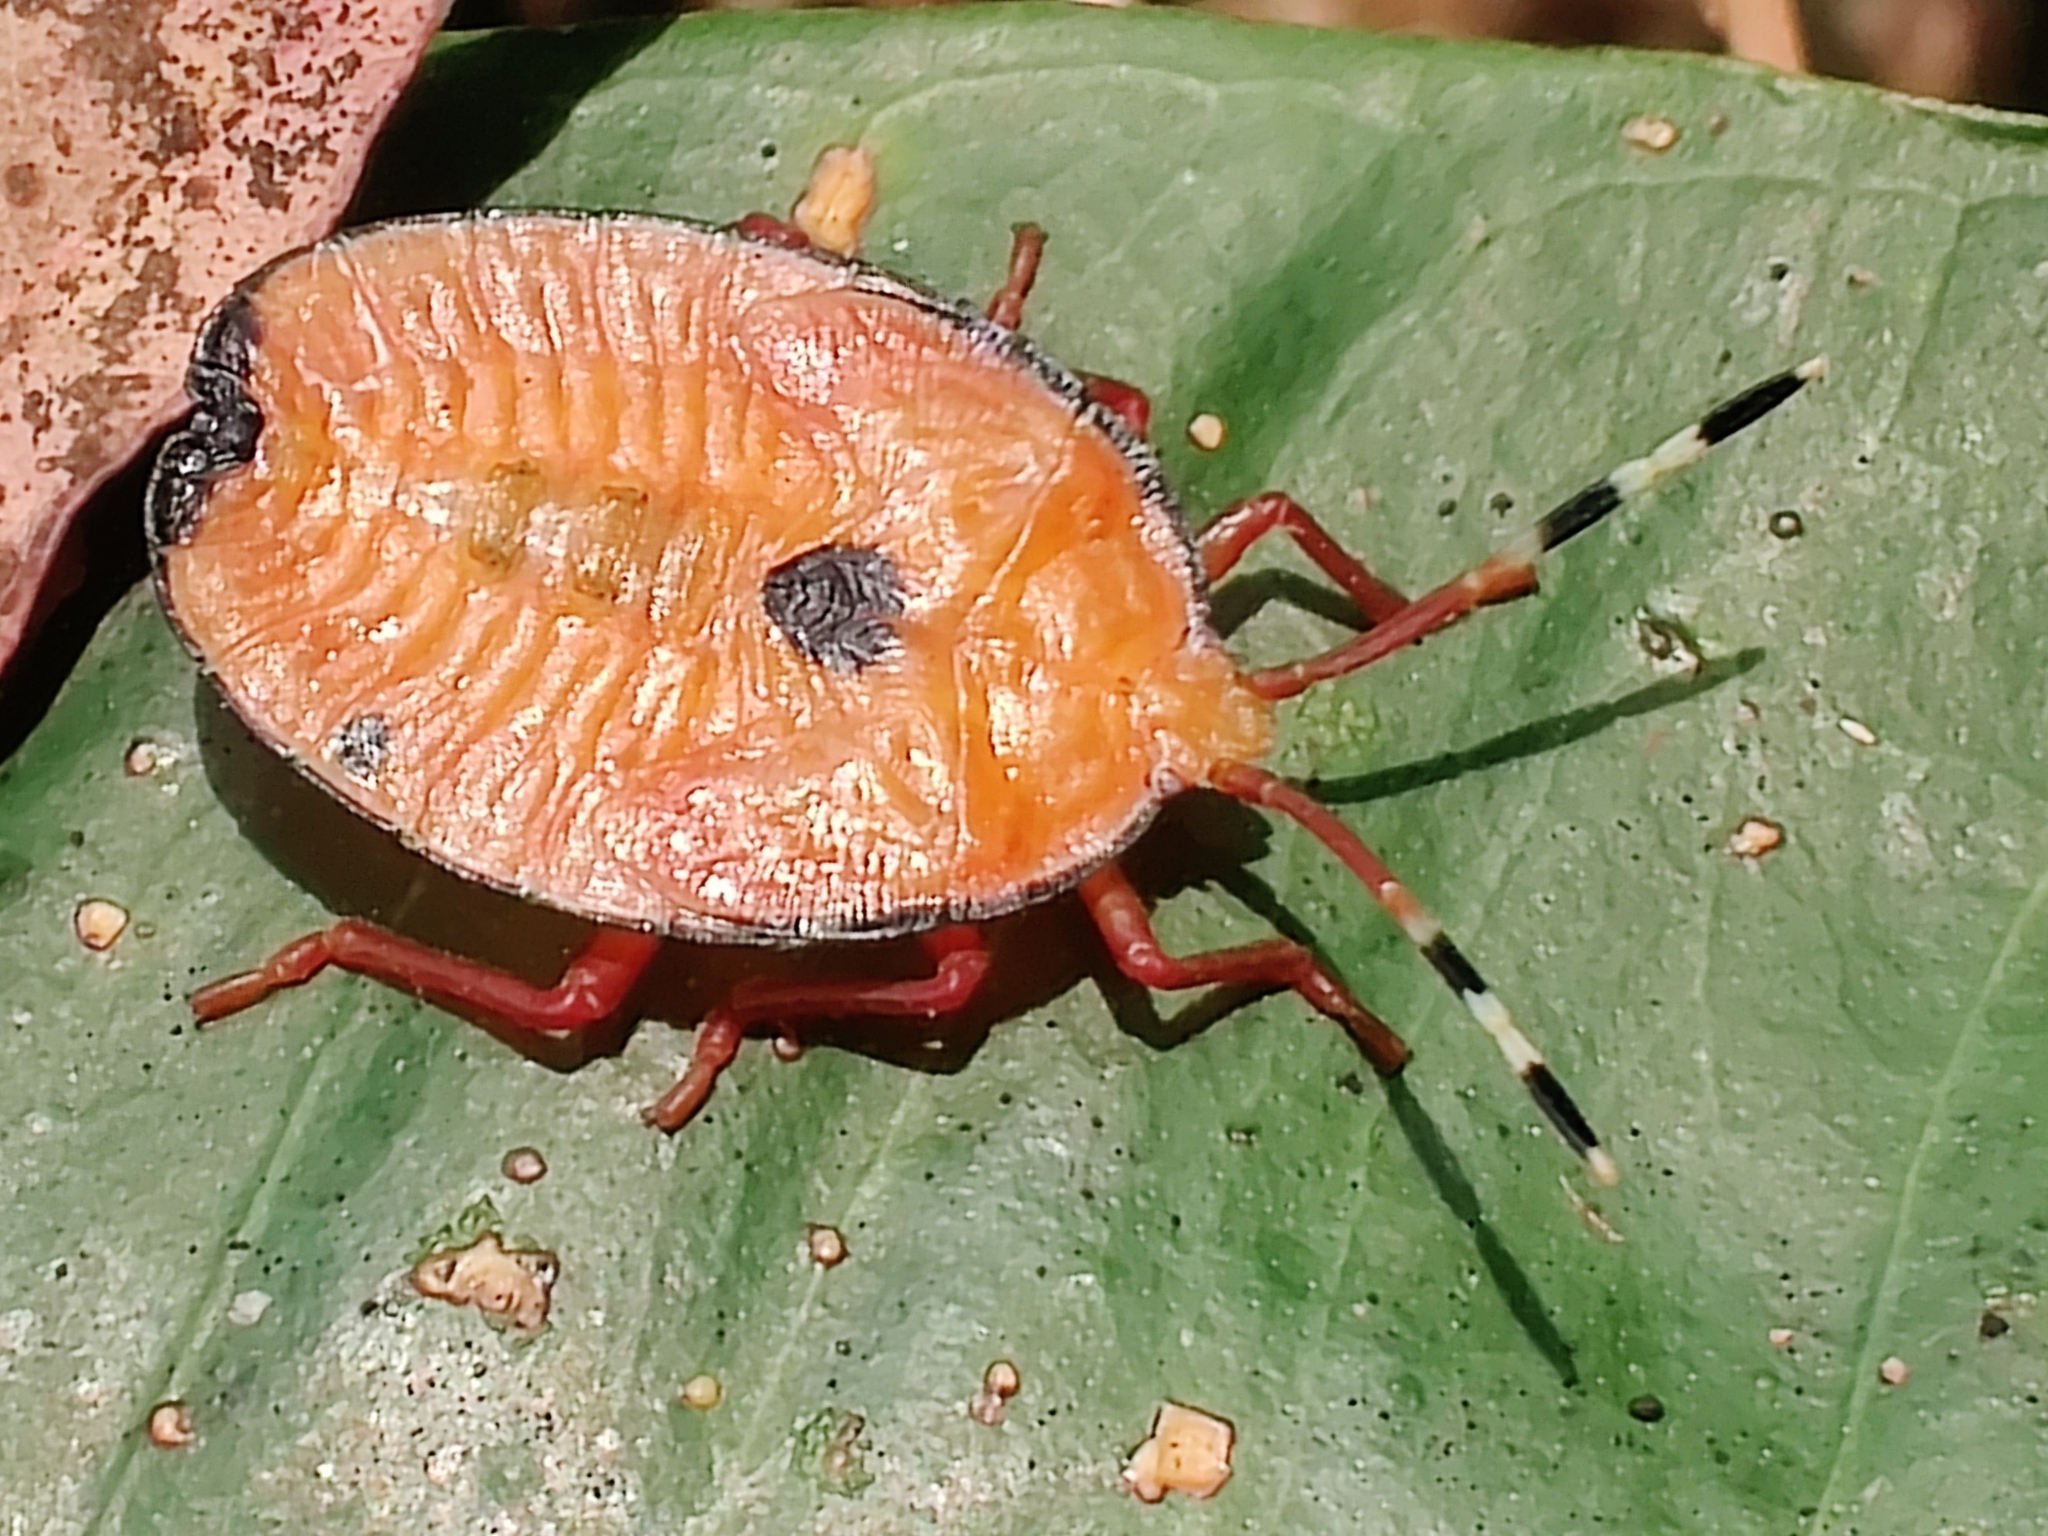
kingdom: Animalia
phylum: Arthropoda
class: Insecta
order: Hemiptera
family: Tessaratomidae
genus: Musgraveia
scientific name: Musgraveia sulciventris
